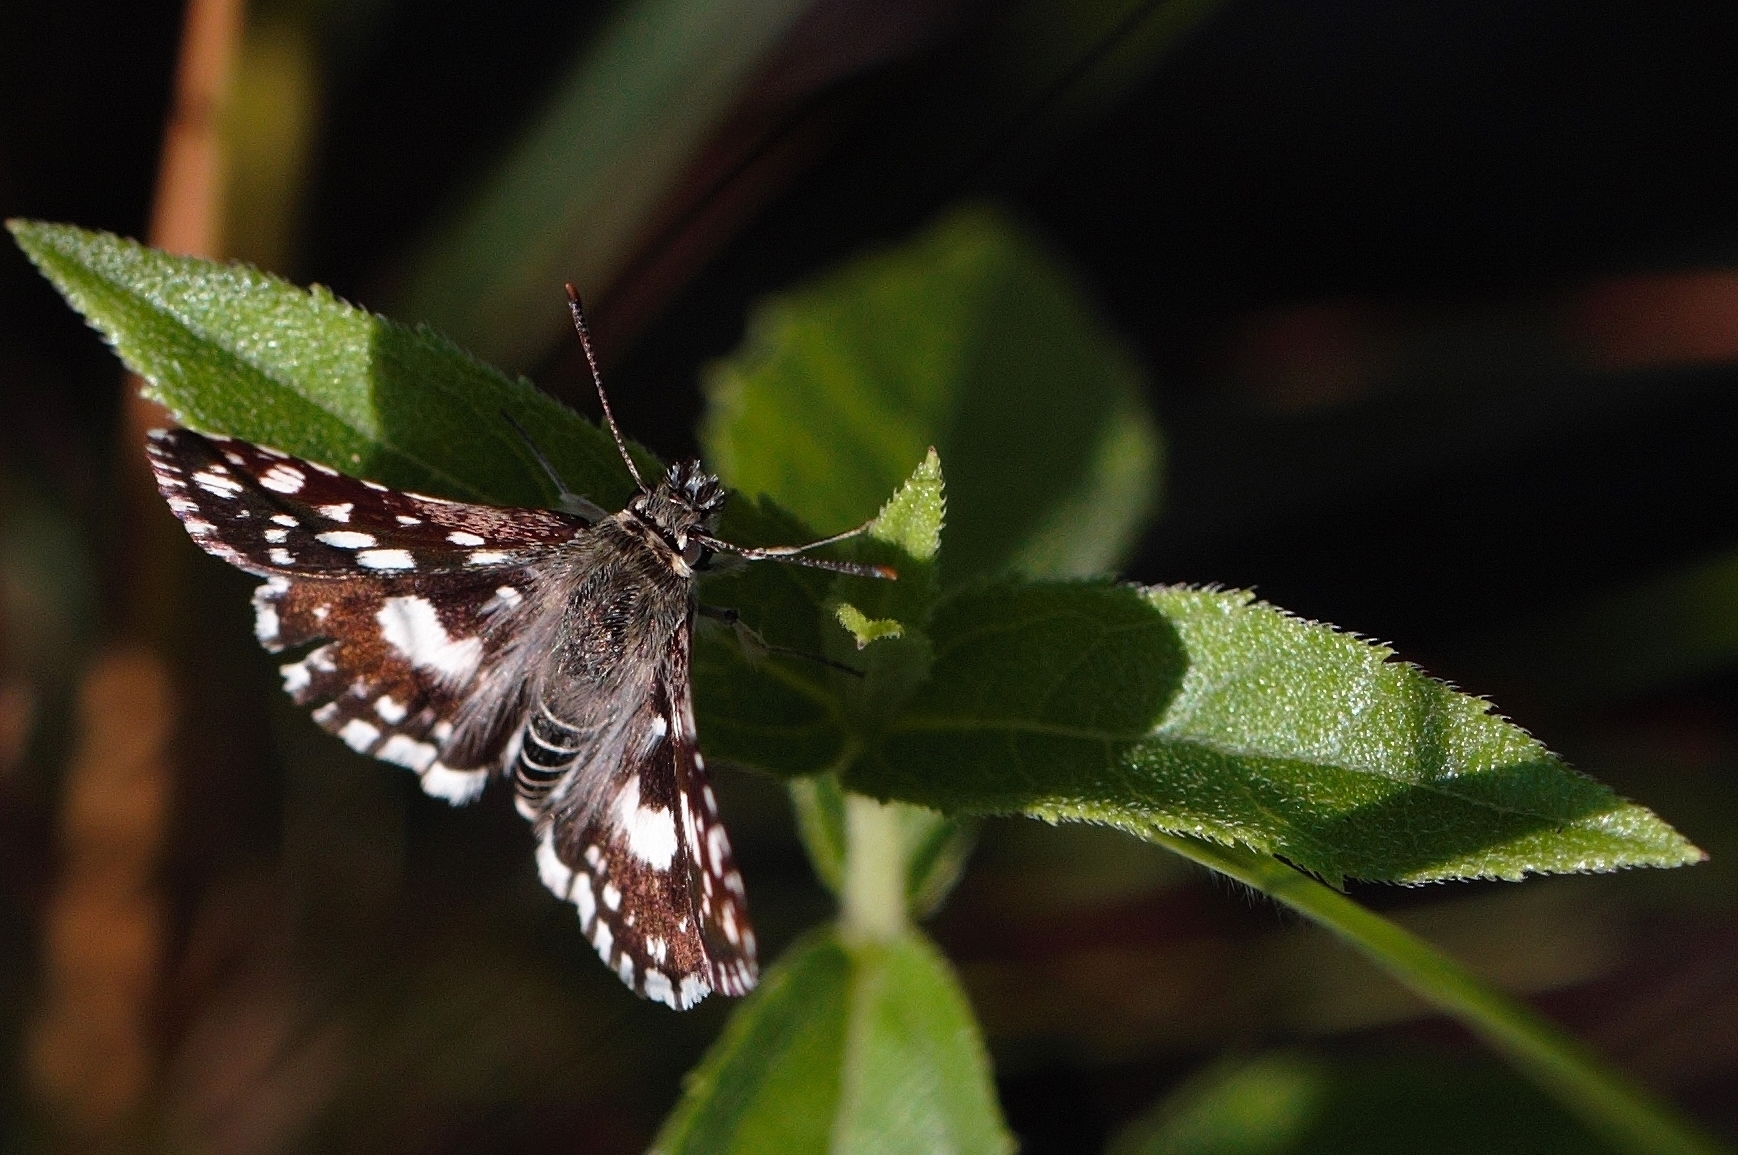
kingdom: Animalia
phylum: Arthropoda
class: Insecta
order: Lepidoptera
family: Hesperiidae
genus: Ernsta
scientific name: Ernsta
